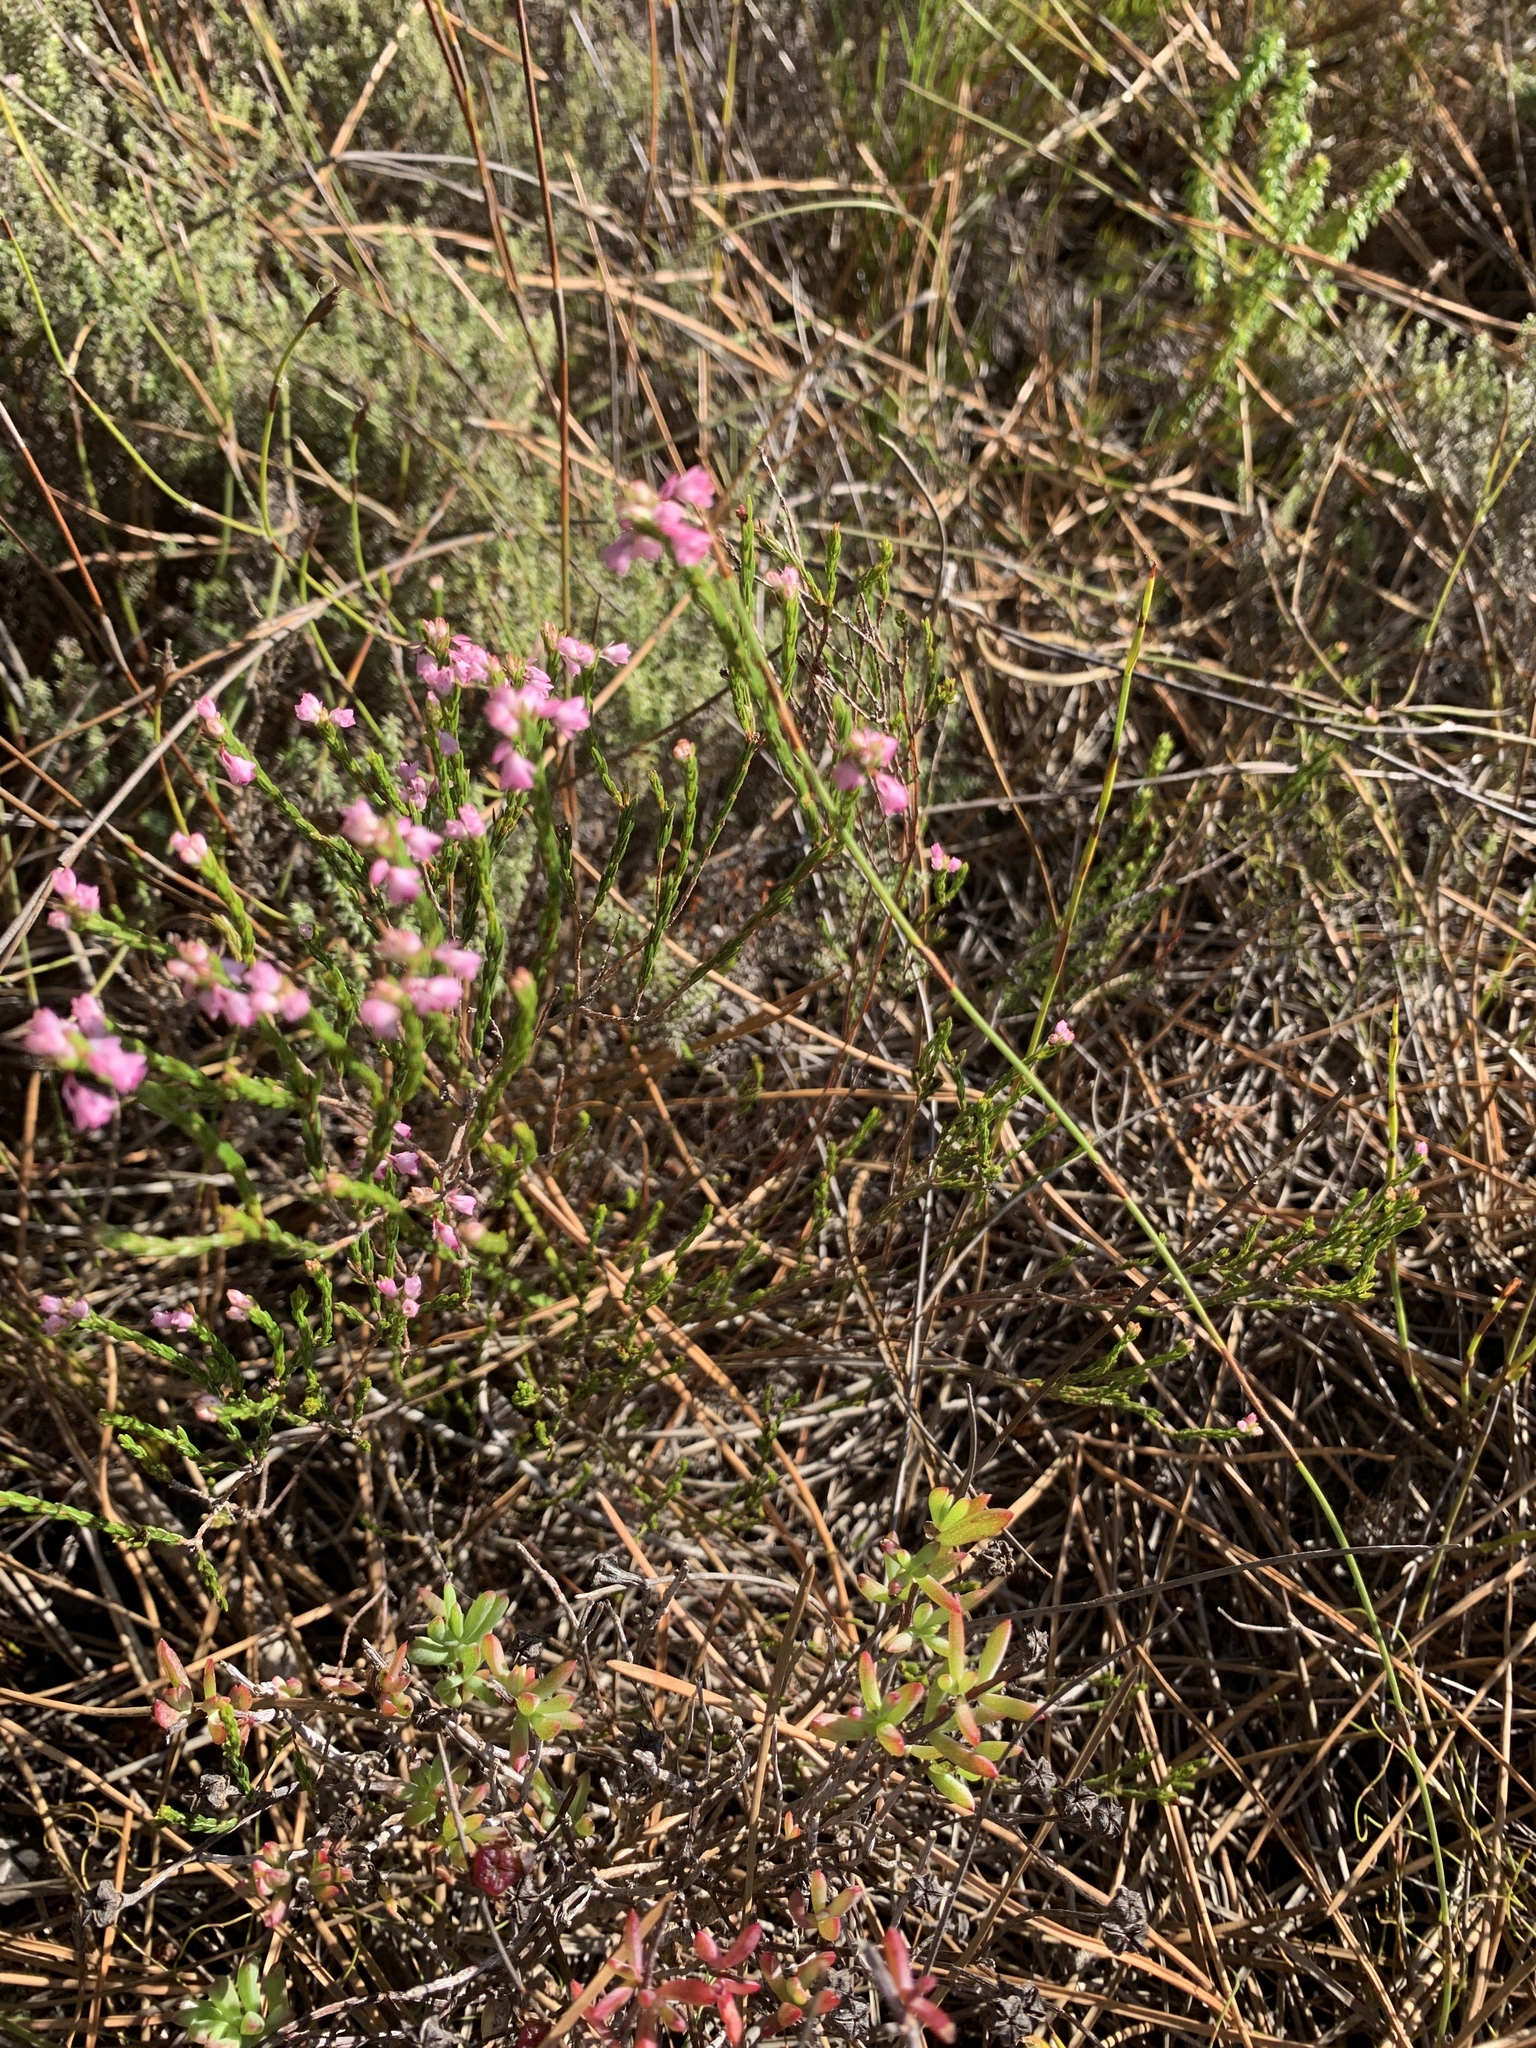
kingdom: Plantae
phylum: Tracheophyta
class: Magnoliopsida
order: Ericales
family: Ericaceae
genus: Erica
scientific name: Erica corifolia
